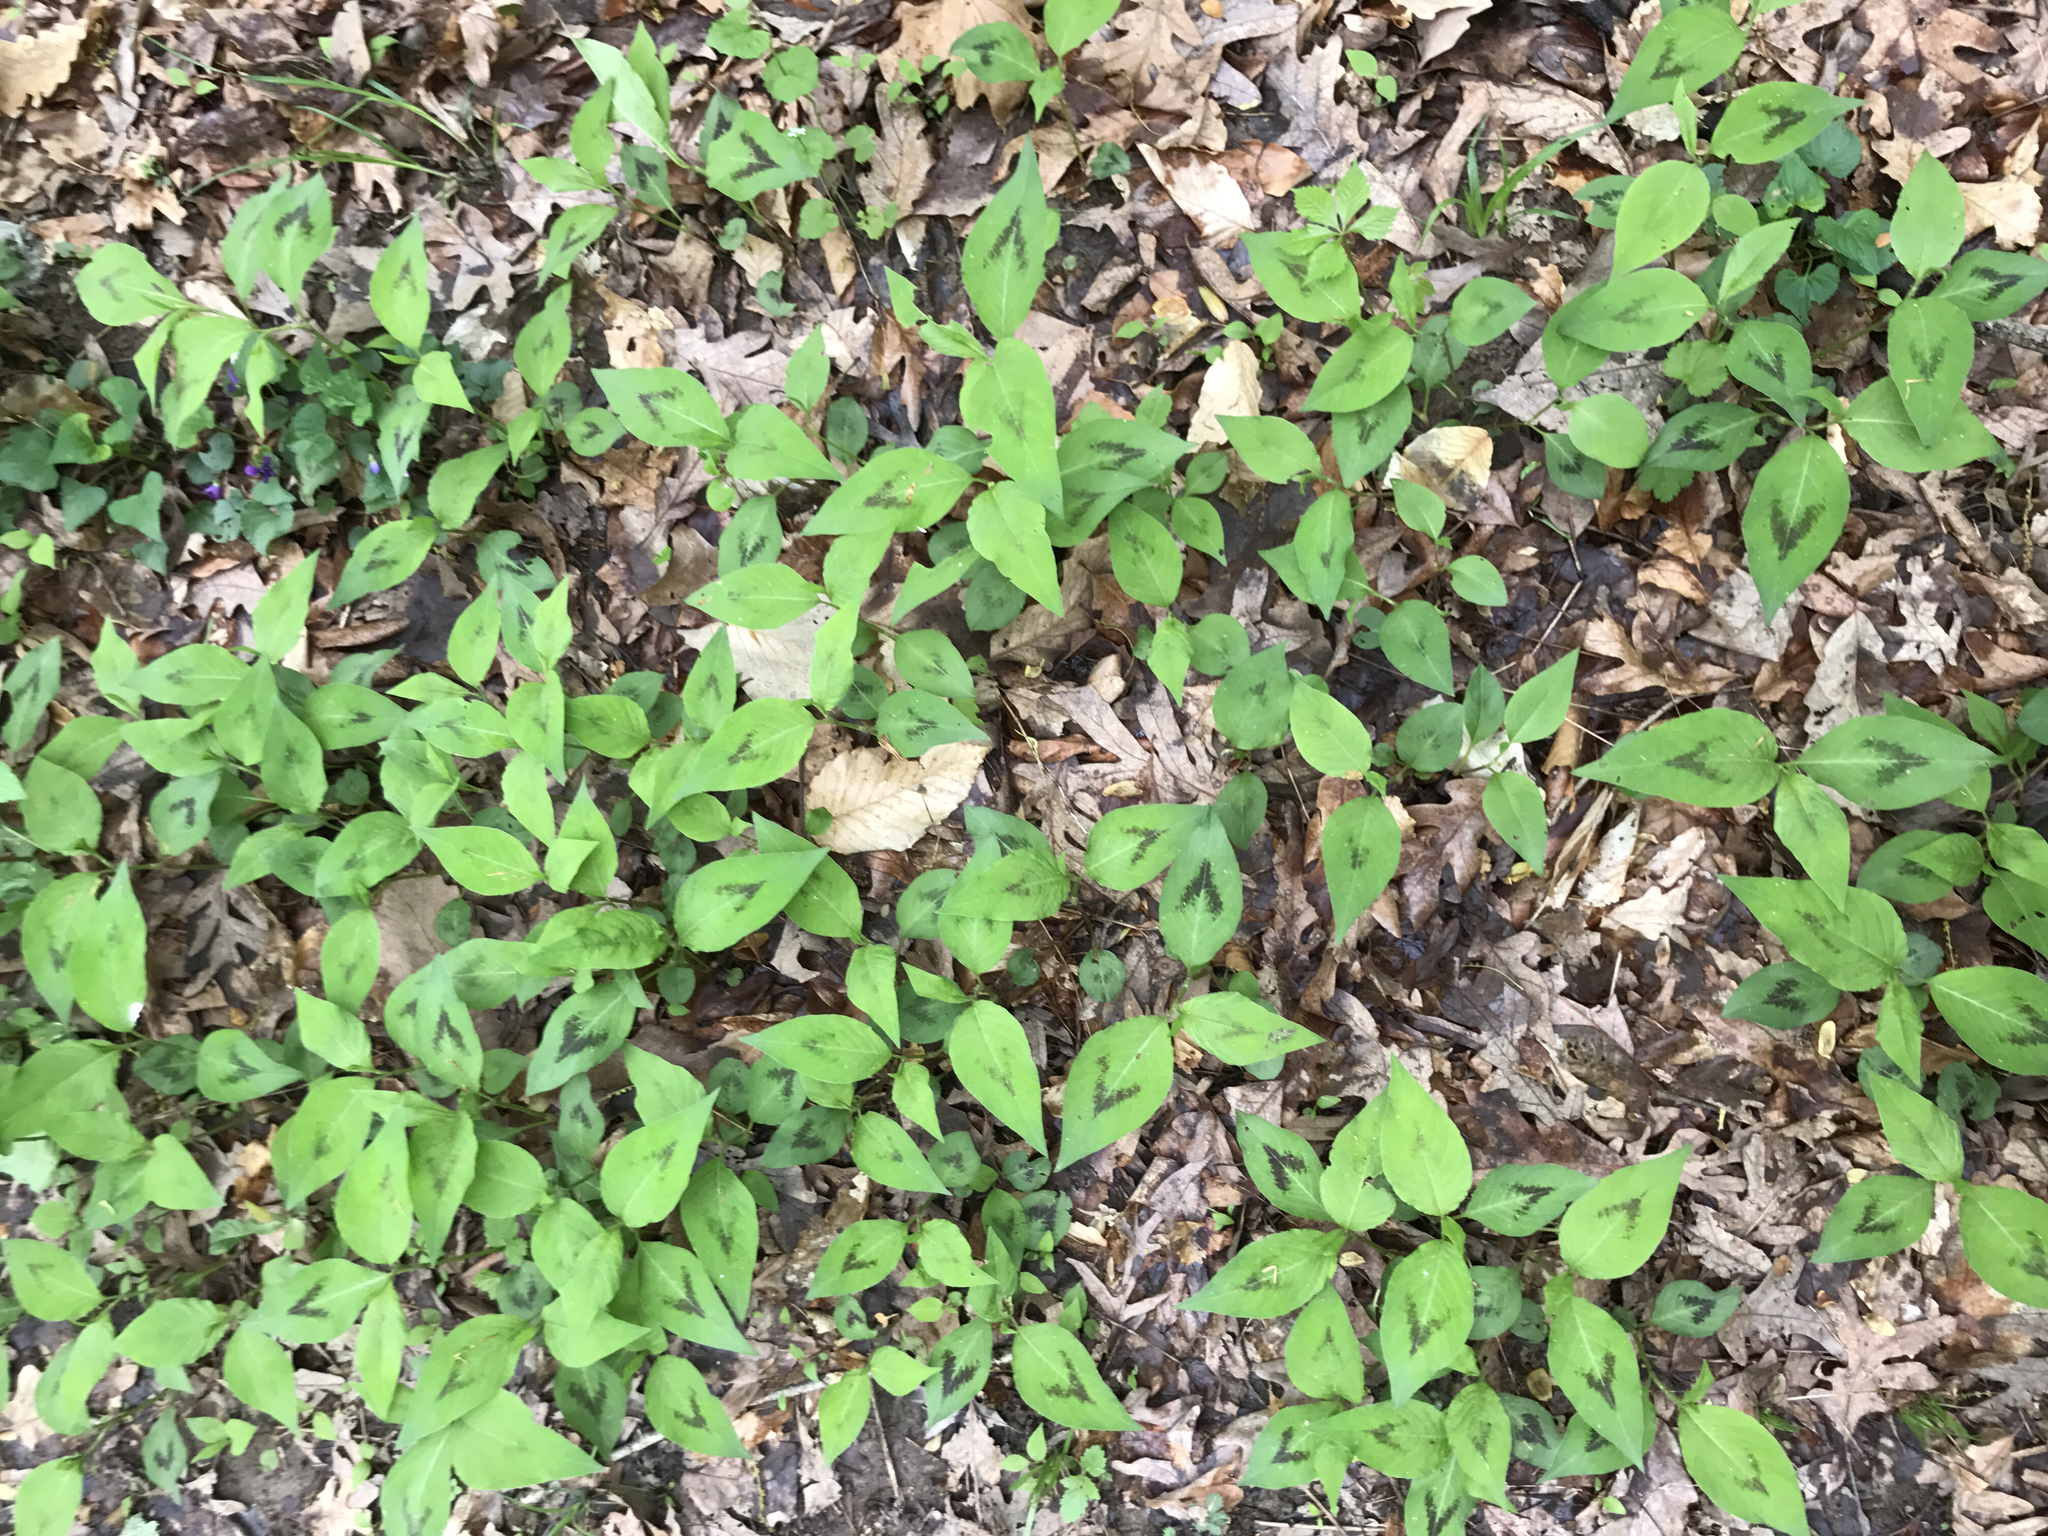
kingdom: Plantae
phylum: Tracheophyta
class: Magnoliopsida
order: Caryophyllales
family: Polygonaceae
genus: Persicaria
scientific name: Persicaria virginiana
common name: Jumpseed
